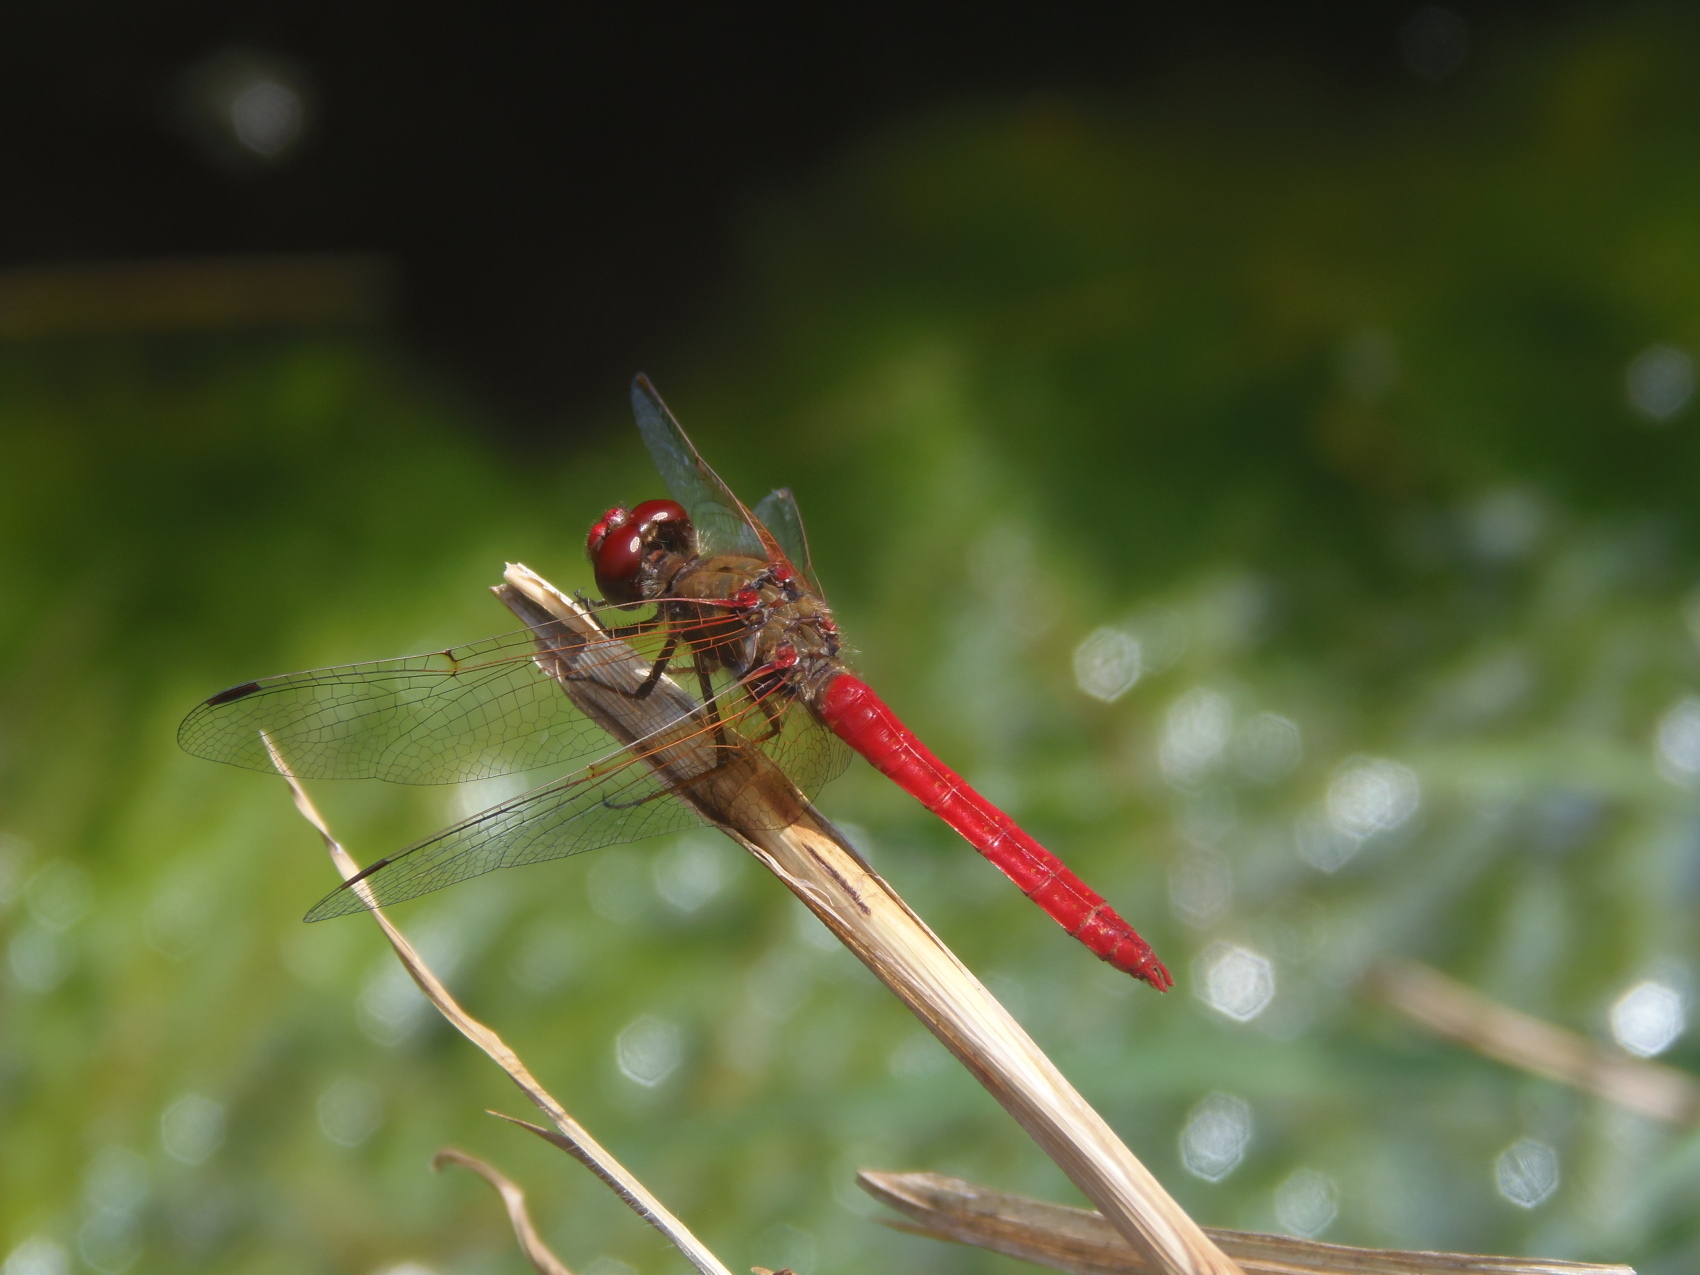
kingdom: Animalia
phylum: Arthropoda
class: Insecta
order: Odonata
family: Libellulidae
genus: Sympetrum
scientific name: Sympetrum illotum
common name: Cardinal meadowhawk
